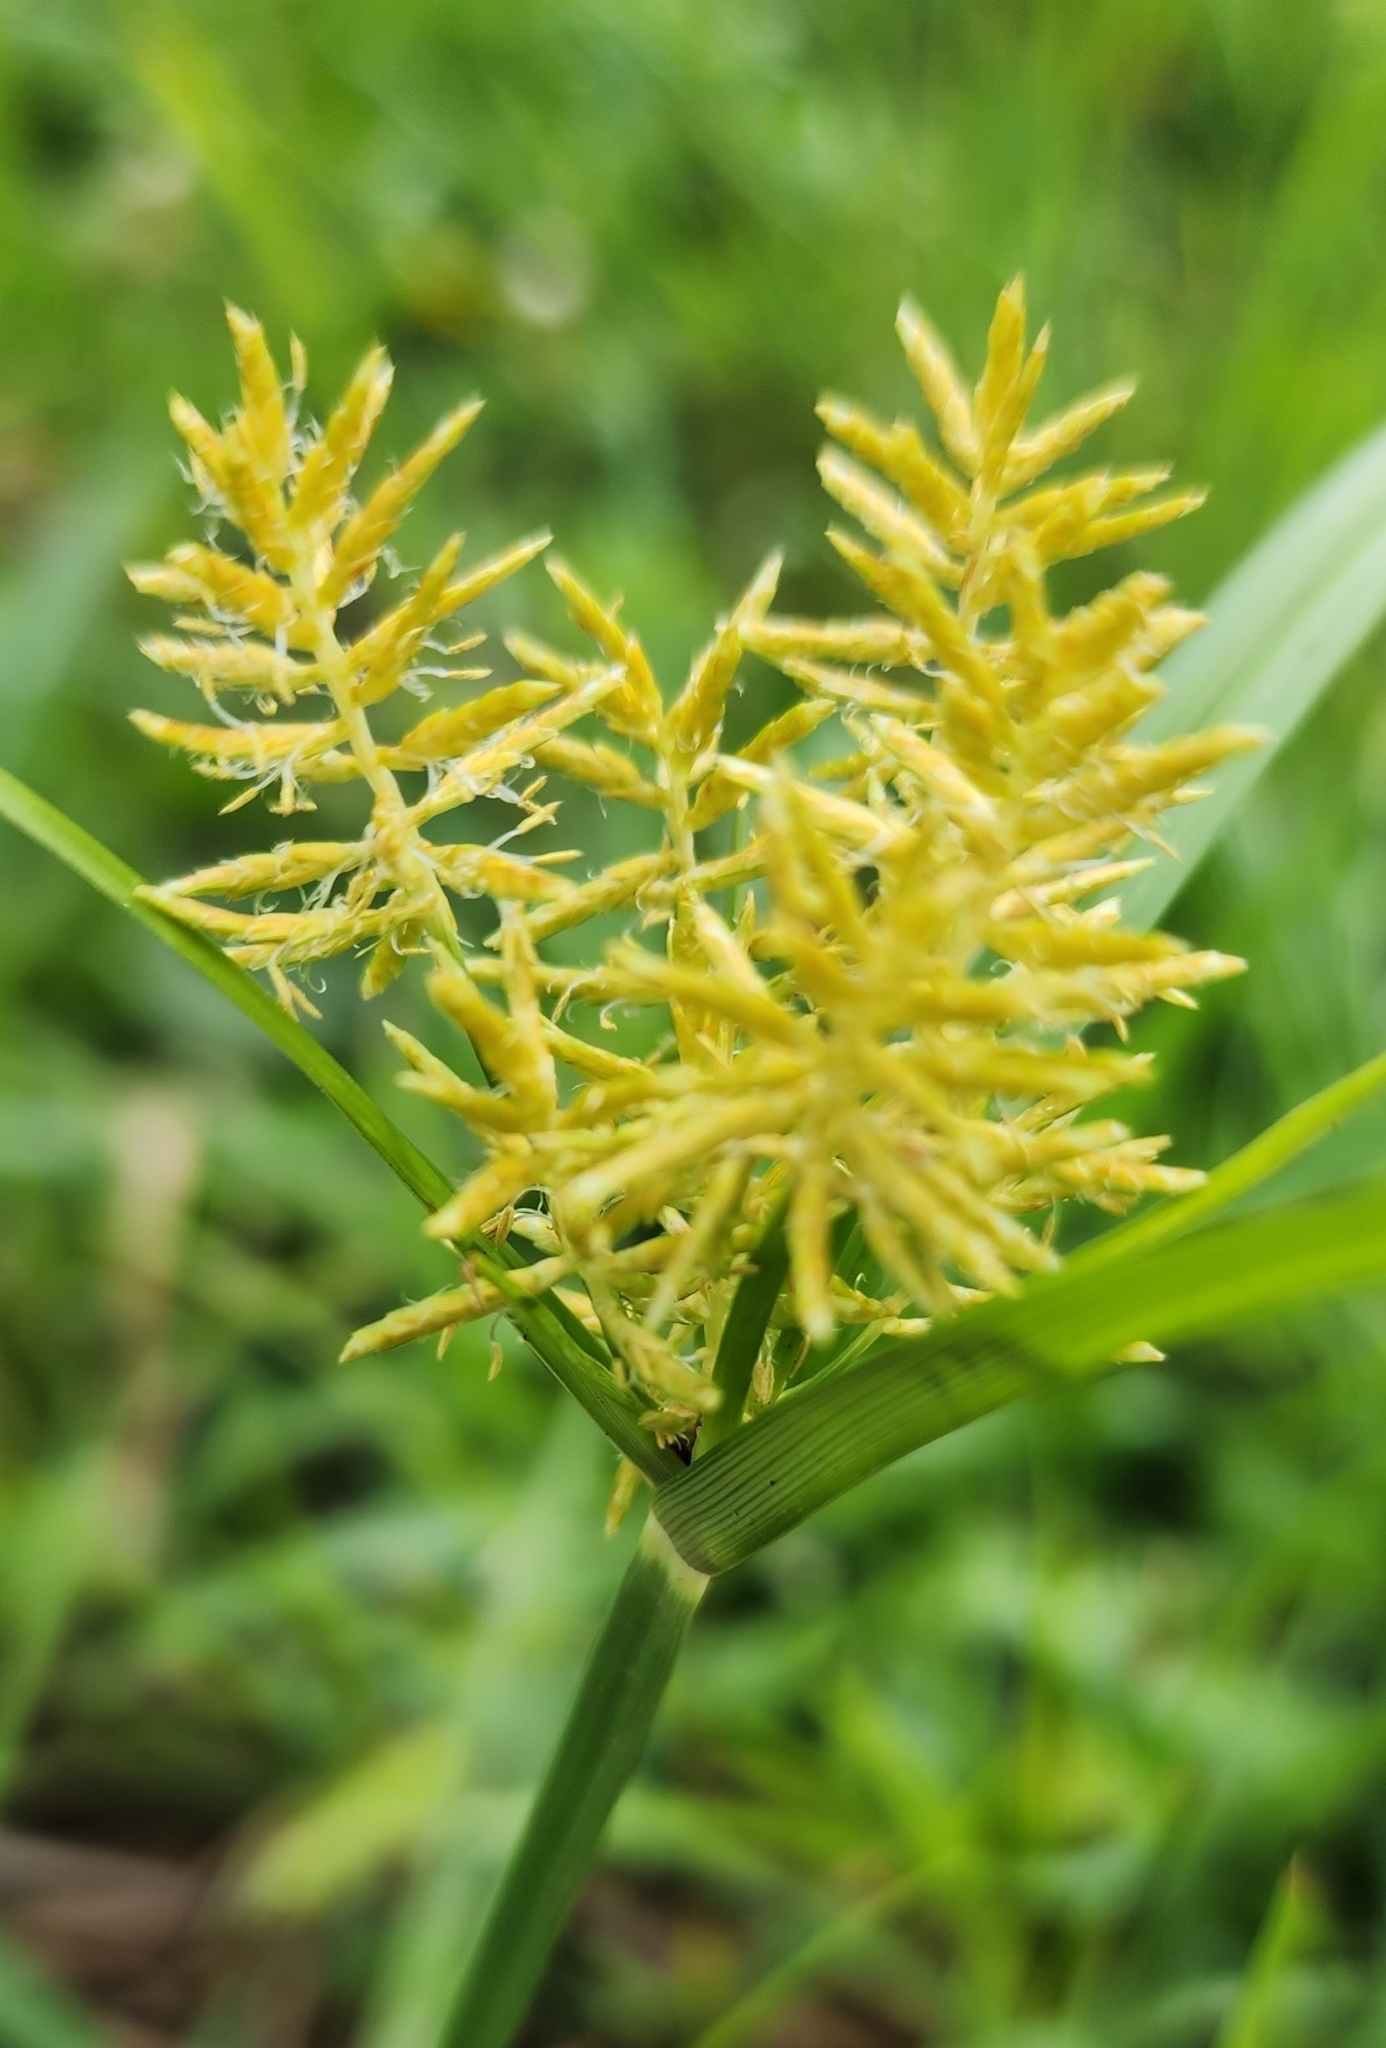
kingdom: Plantae
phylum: Tracheophyta
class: Liliopsida
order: Poales
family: Cyperaceae
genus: Cyperus
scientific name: Cyperus esculentus
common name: Yellow nutsedge
